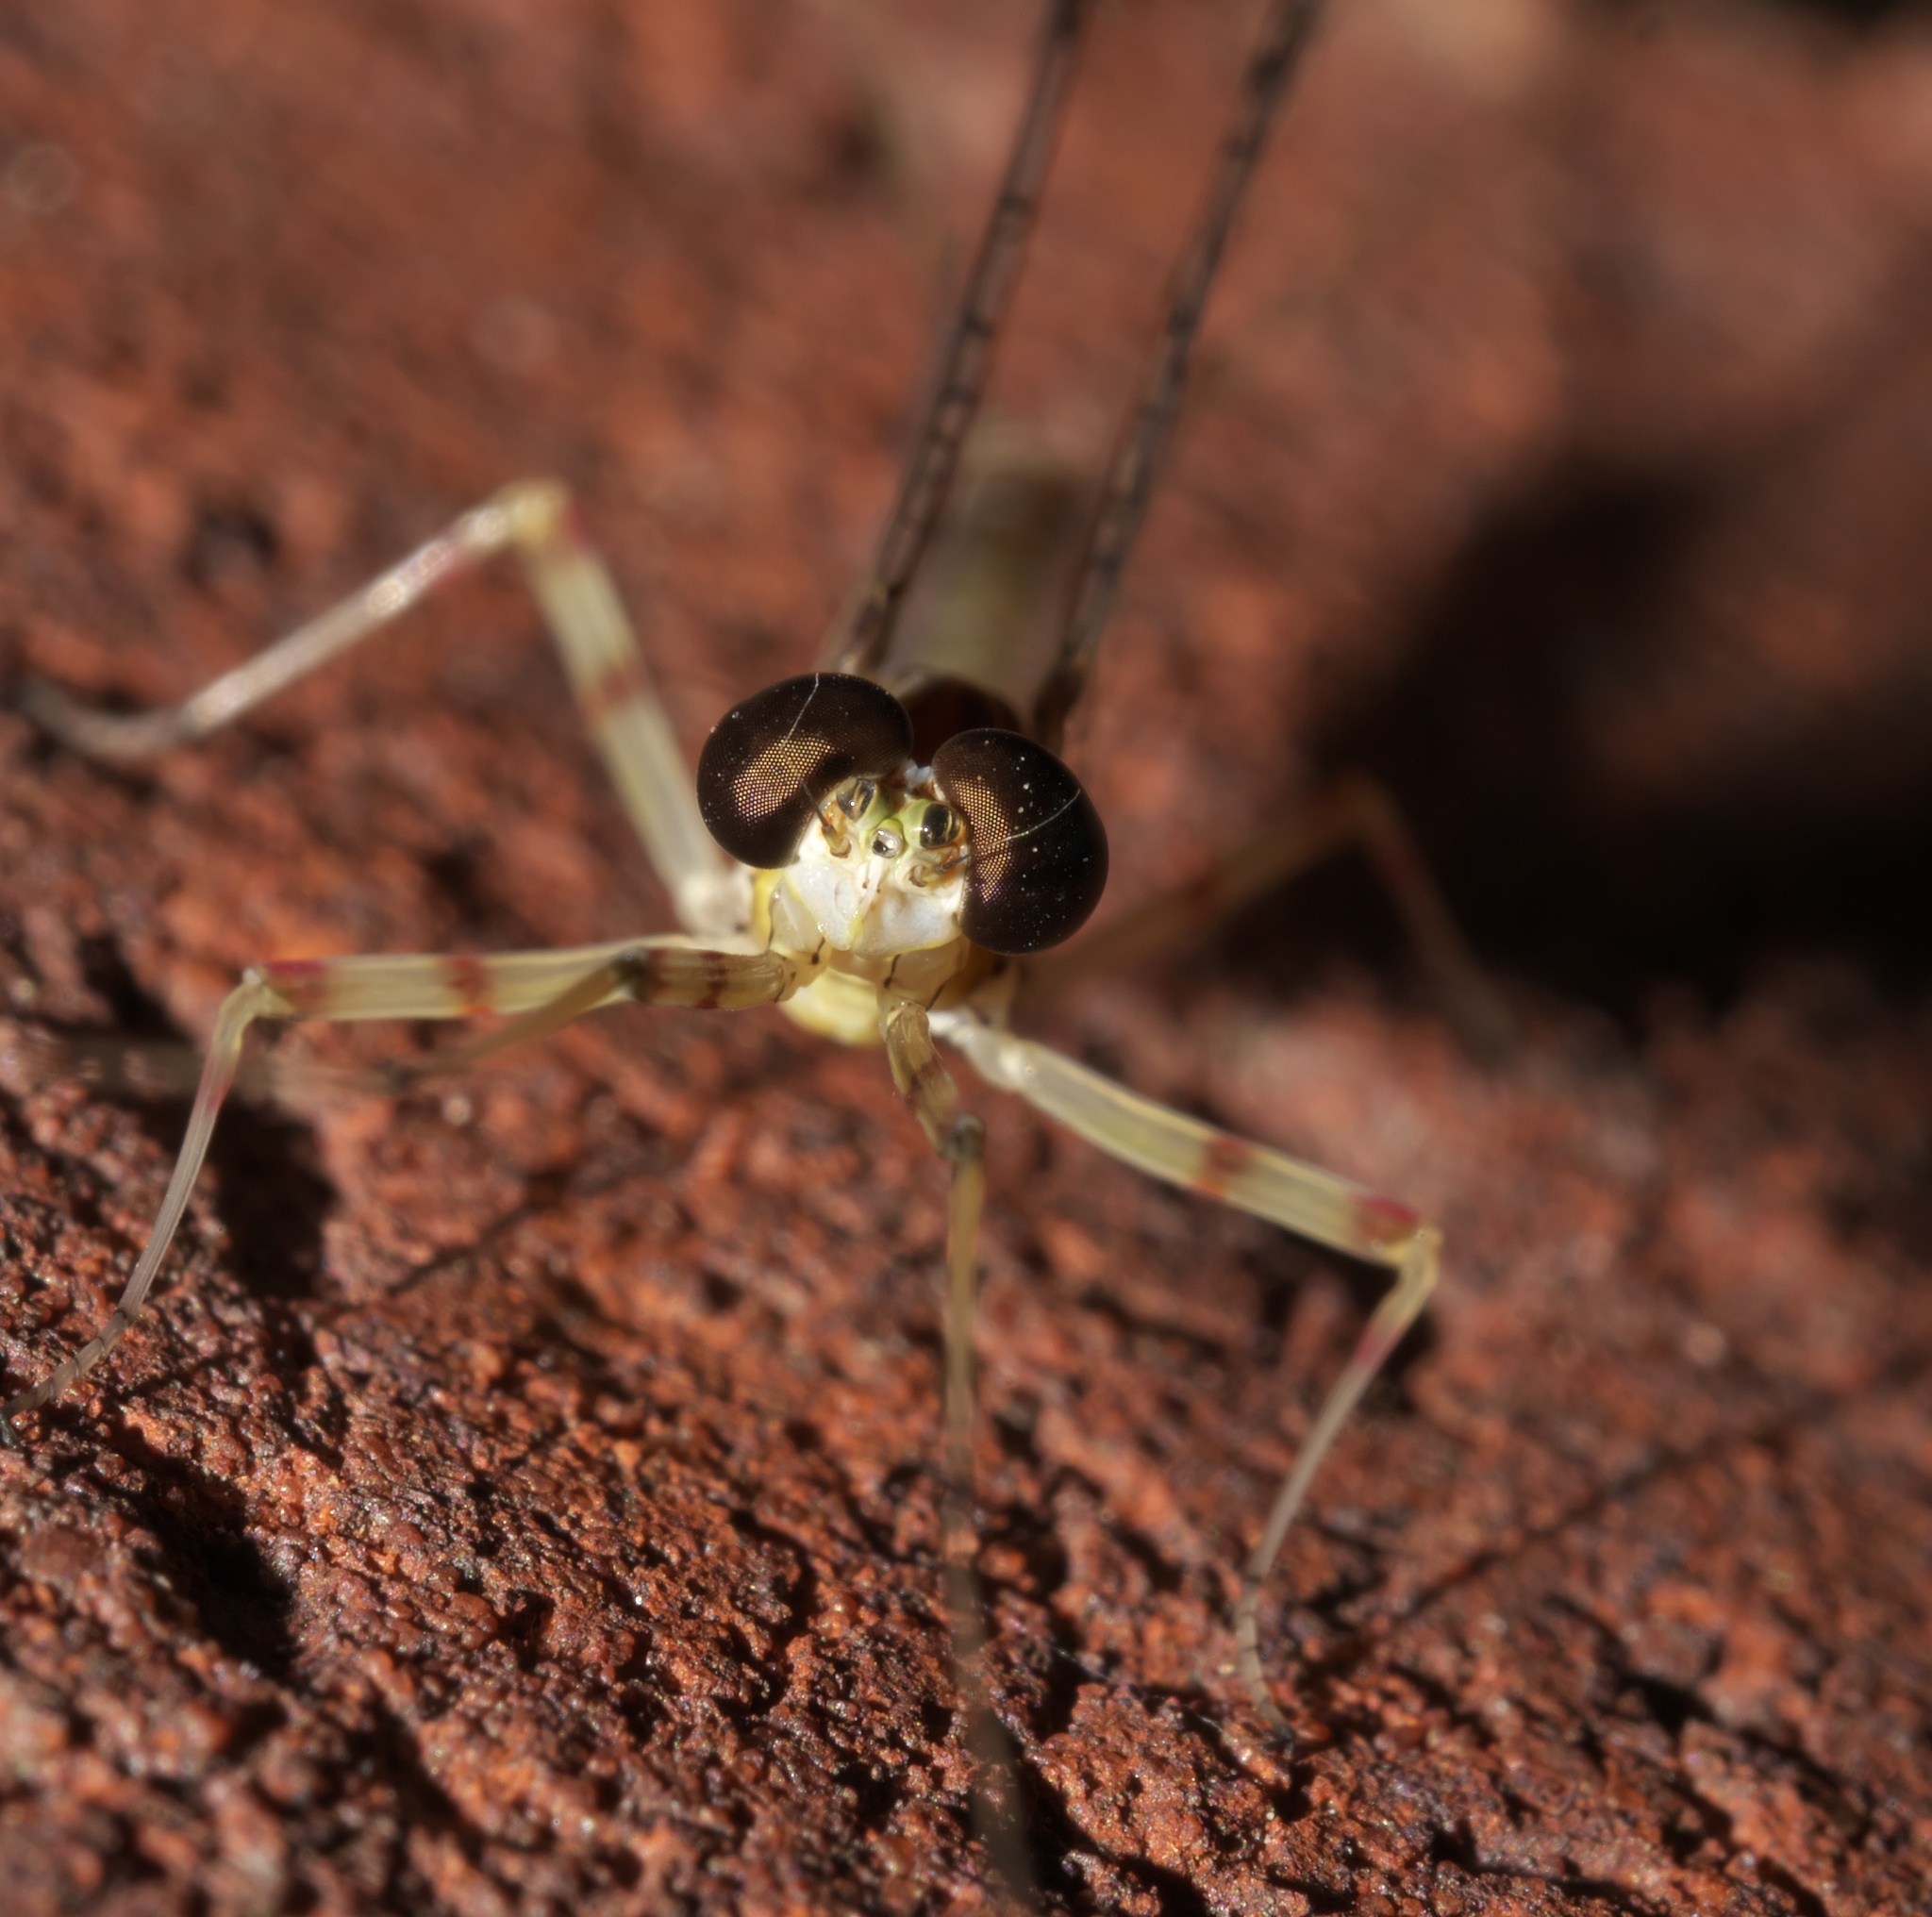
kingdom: Animalia
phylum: Arthropoda
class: Insecta
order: Ephemeroptera
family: Heptageniidae
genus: Stenonema
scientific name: Stenonema femoratum
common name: Dark cahill
